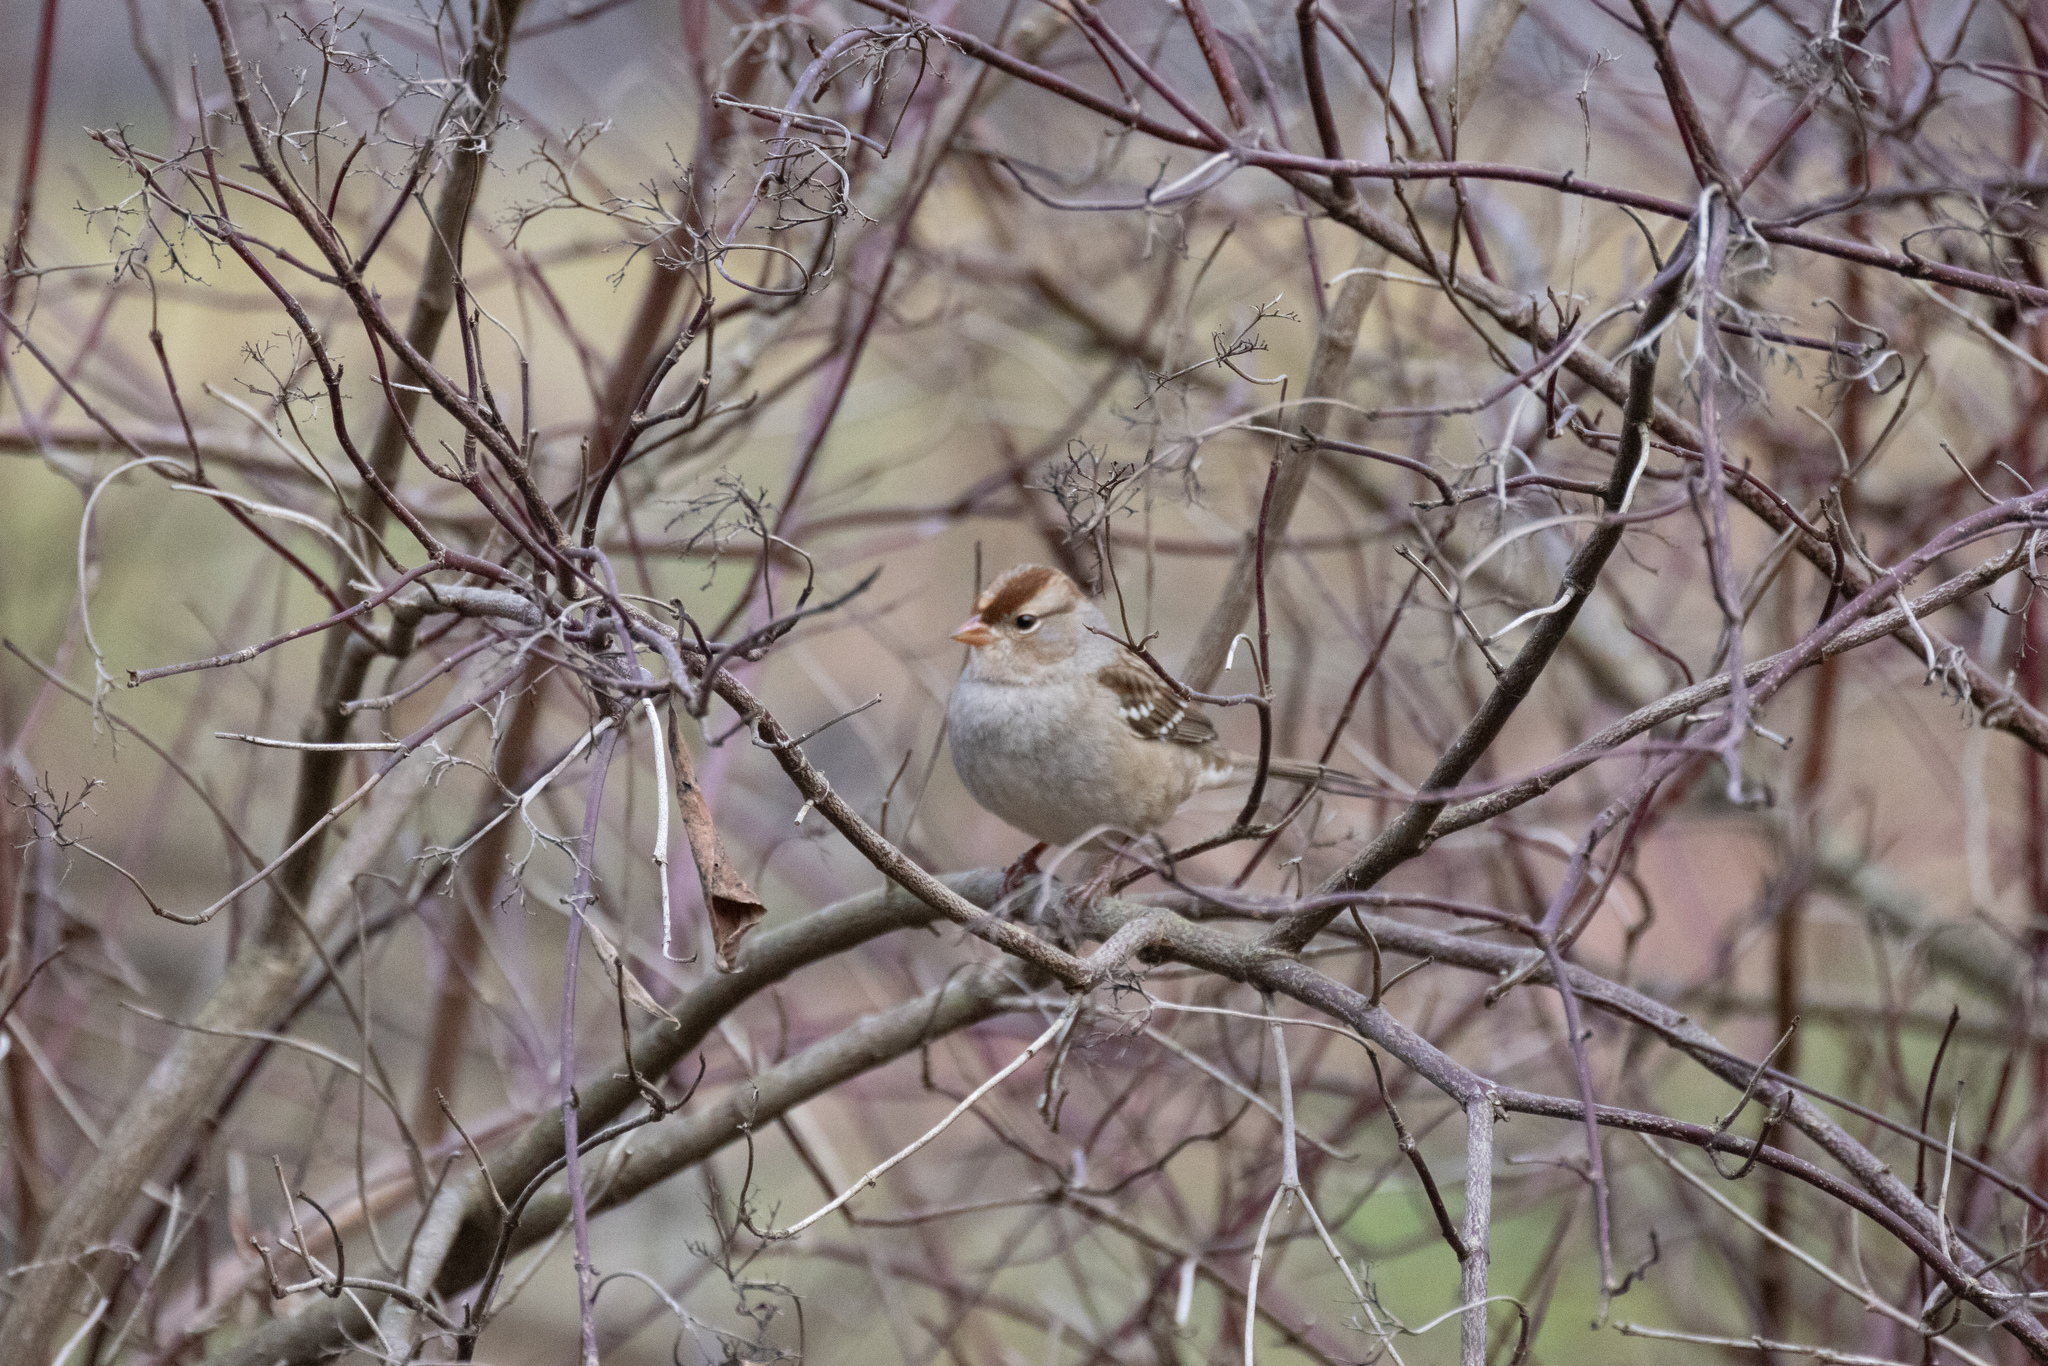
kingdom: Animalia
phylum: Chordata
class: Aves
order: Passeriformes
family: Passerellidae
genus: Zonotrichia
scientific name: Zonotrichia leucophrys
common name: White-crowned sparrow
